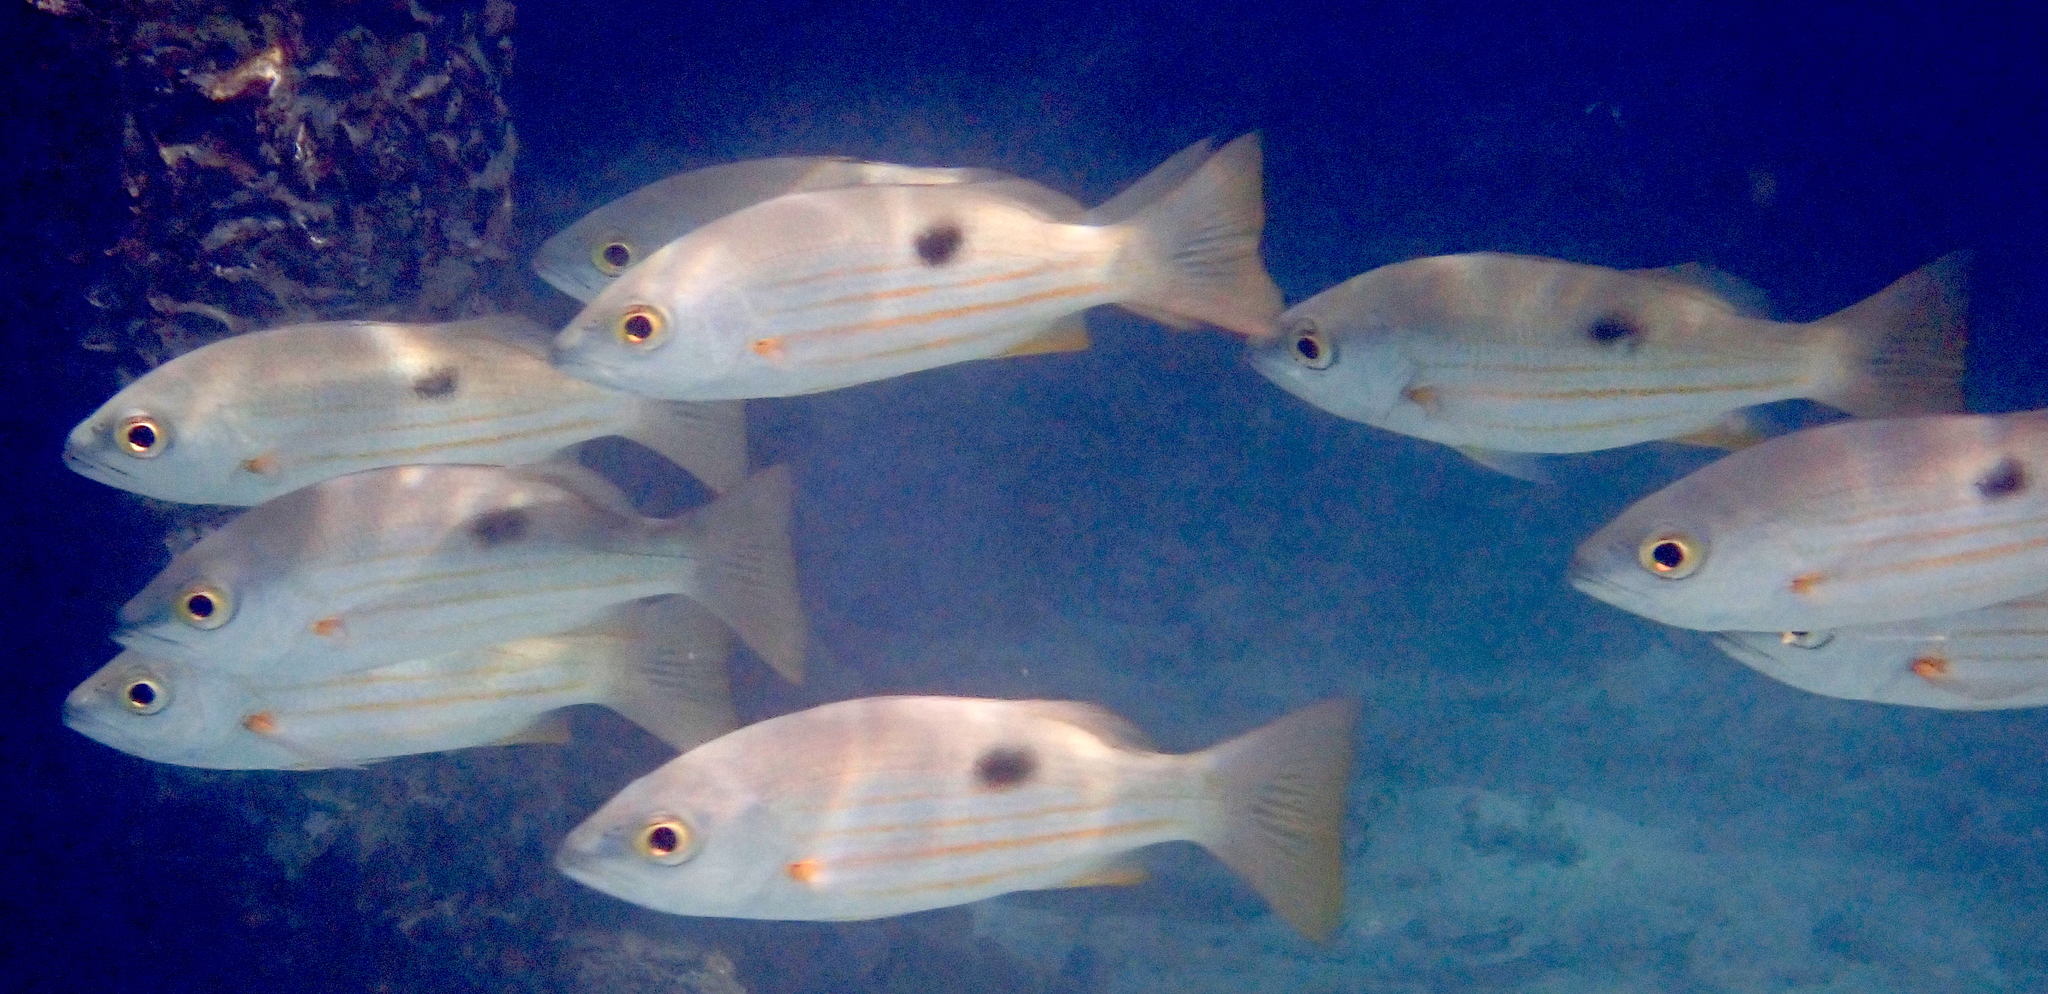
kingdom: Animalia
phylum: Chordata
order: Perciformes
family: Lutjanidae
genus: Lutjanus
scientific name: Lutjanus ehrenbergii
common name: Blackspot snapper
